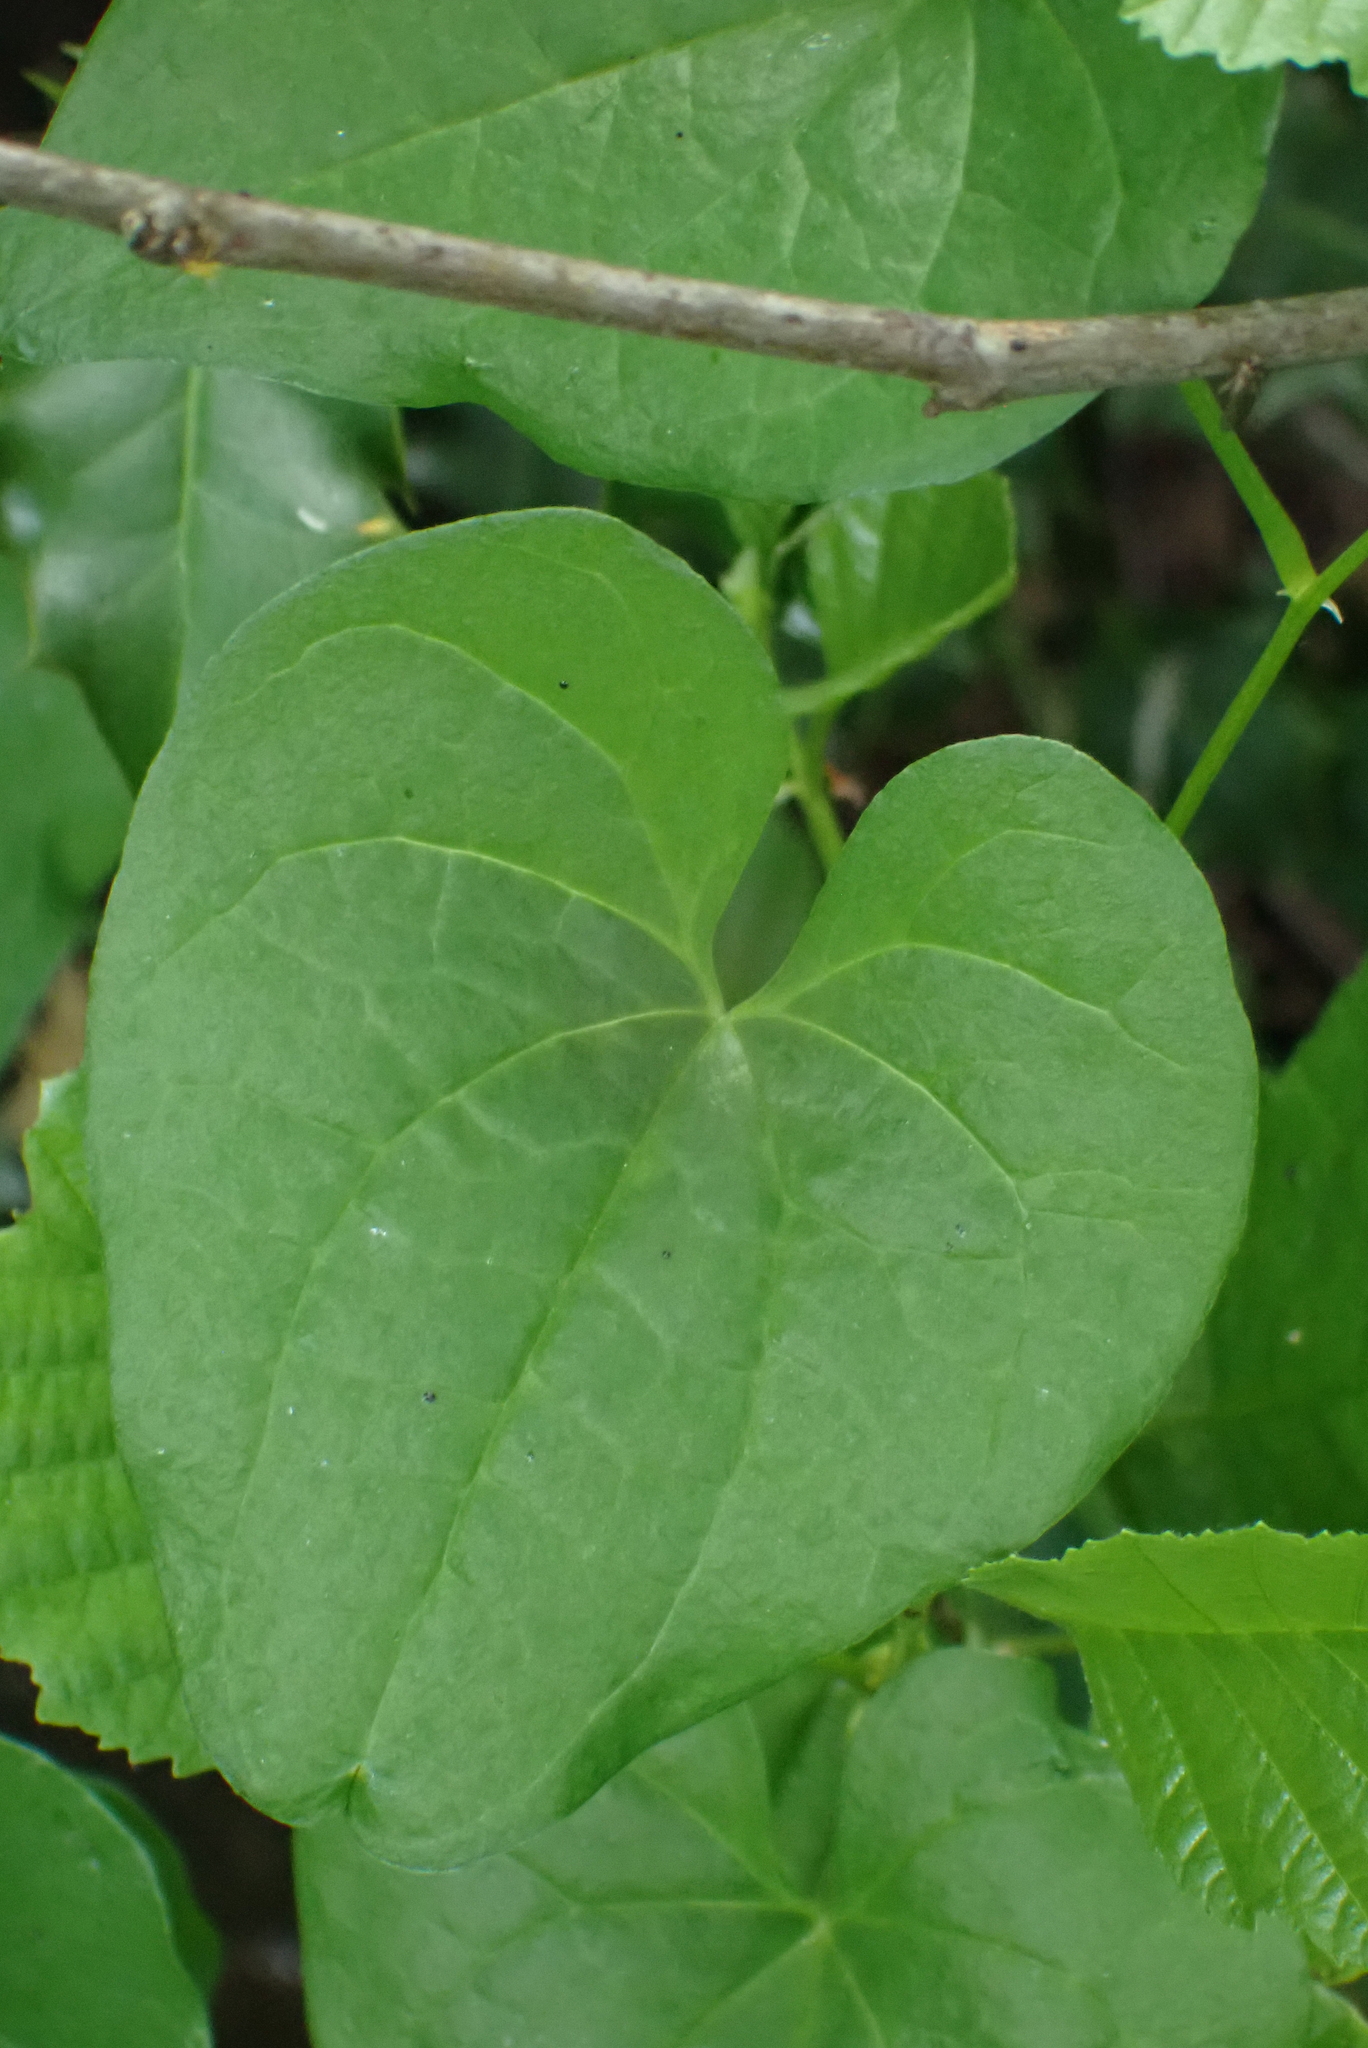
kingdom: Plantae
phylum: Tracheophyta
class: Liliopsida
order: Dioscoreales
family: Dioscoreaceae
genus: Dioscorea
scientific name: Dioscorea communis
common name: Black-bindweed
